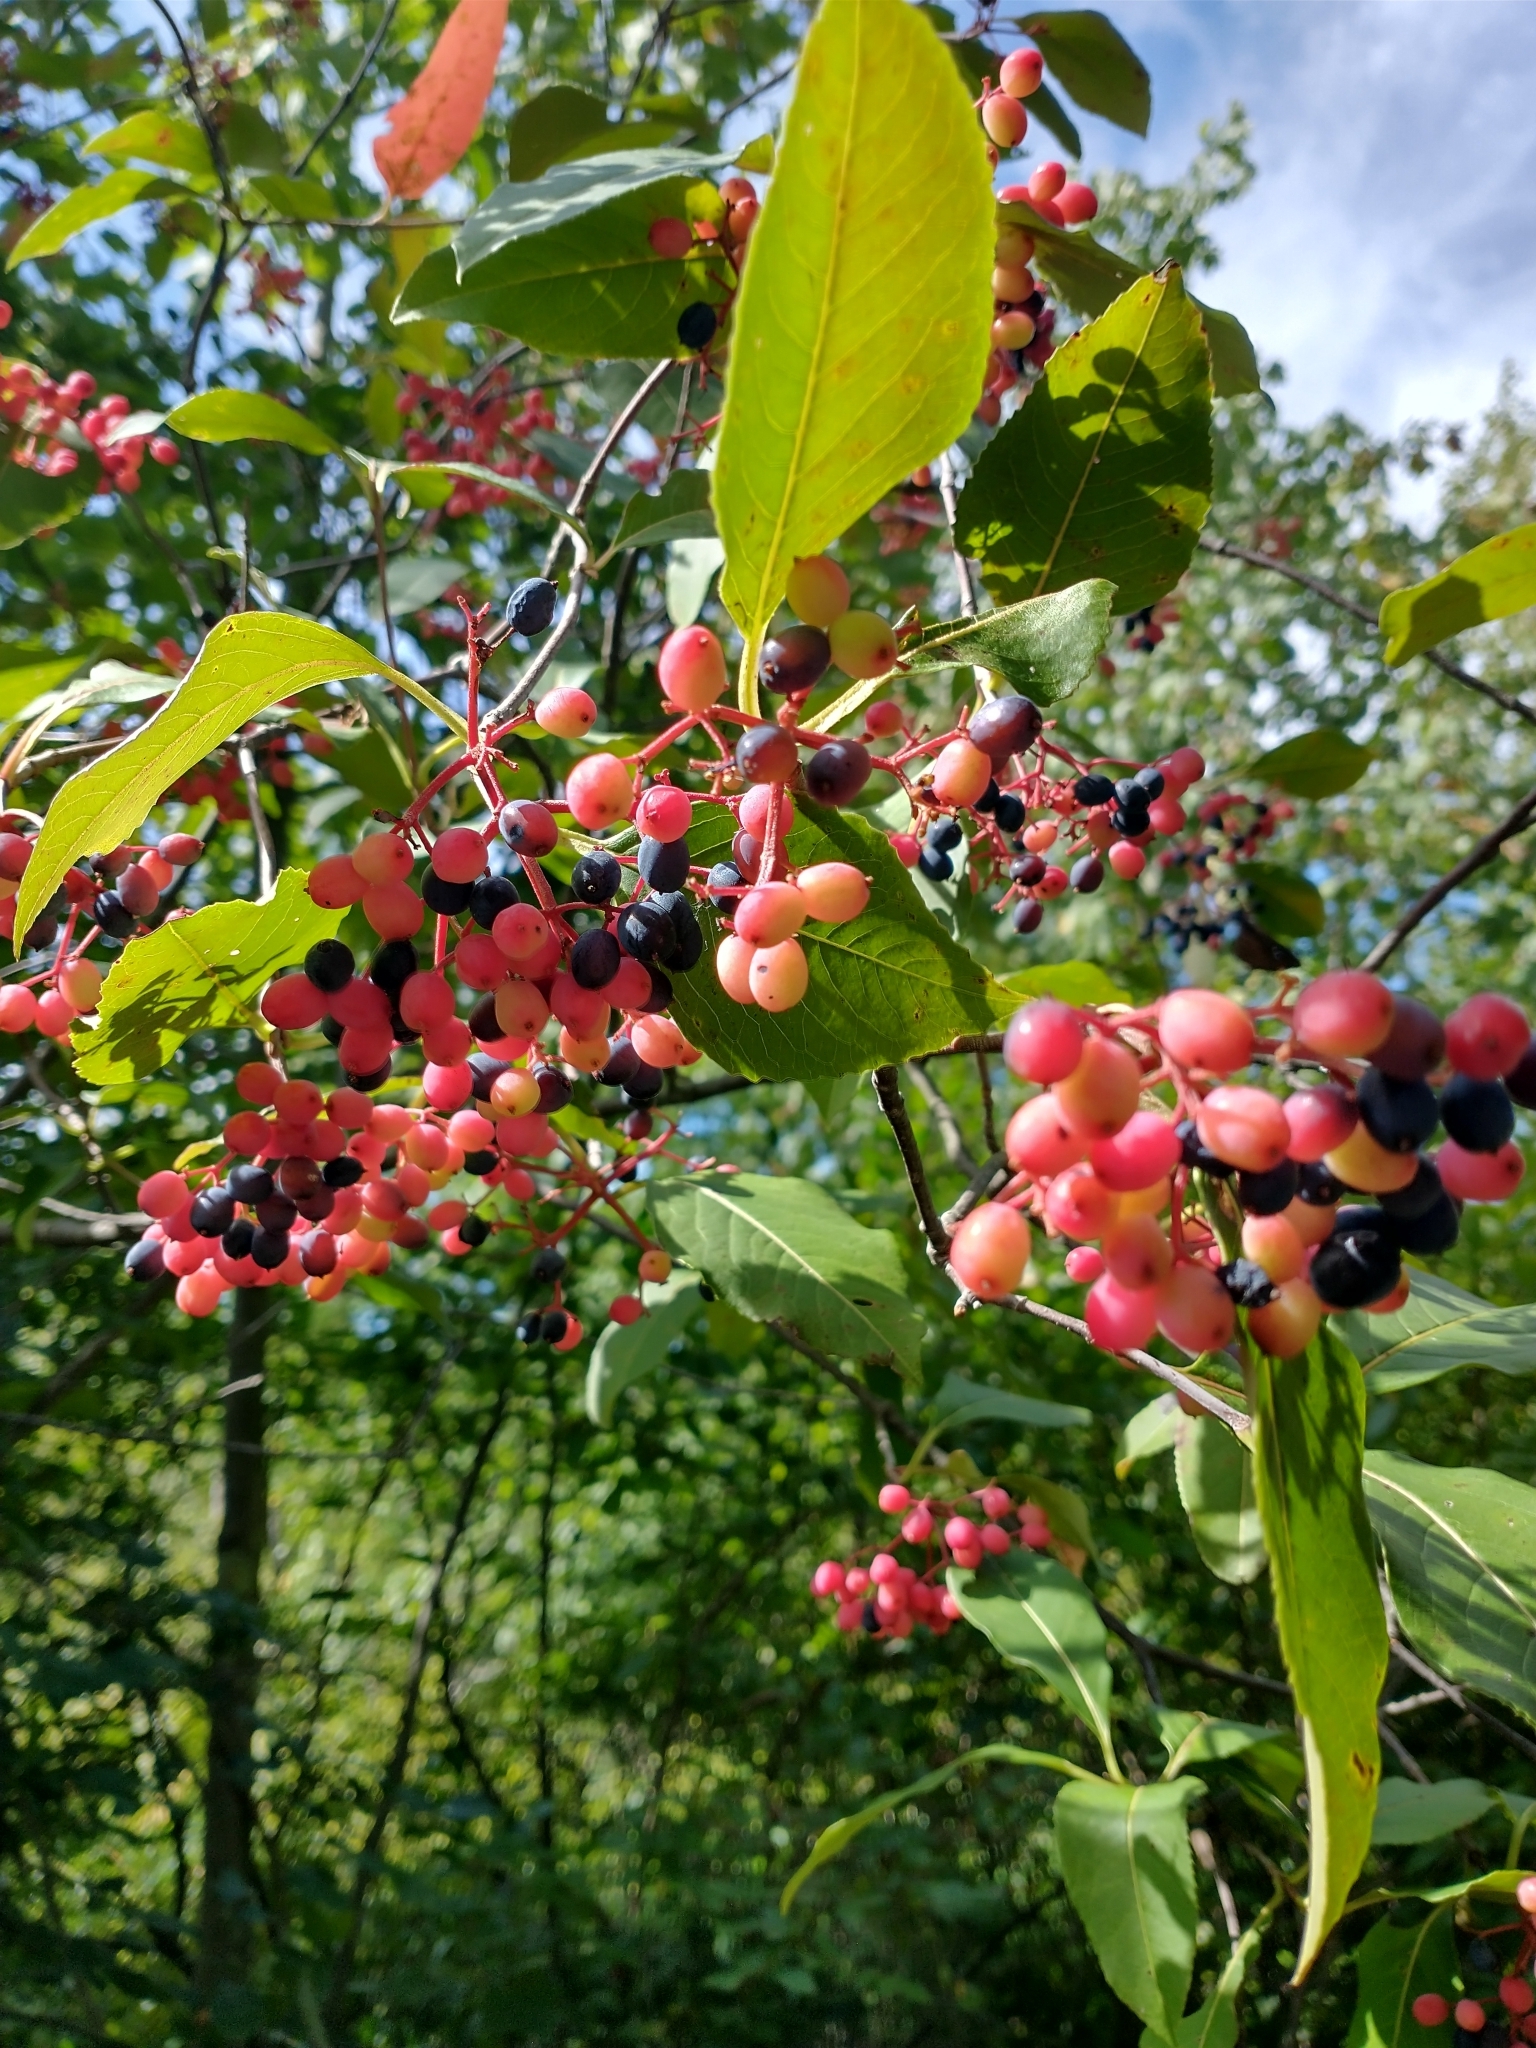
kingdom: Plantae
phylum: Tracheophyta
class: Magnoliopsida
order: Dipsacales
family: Viburnaceae
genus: Viburnum
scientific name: Viburnum cassinoides
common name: Swamp haw
